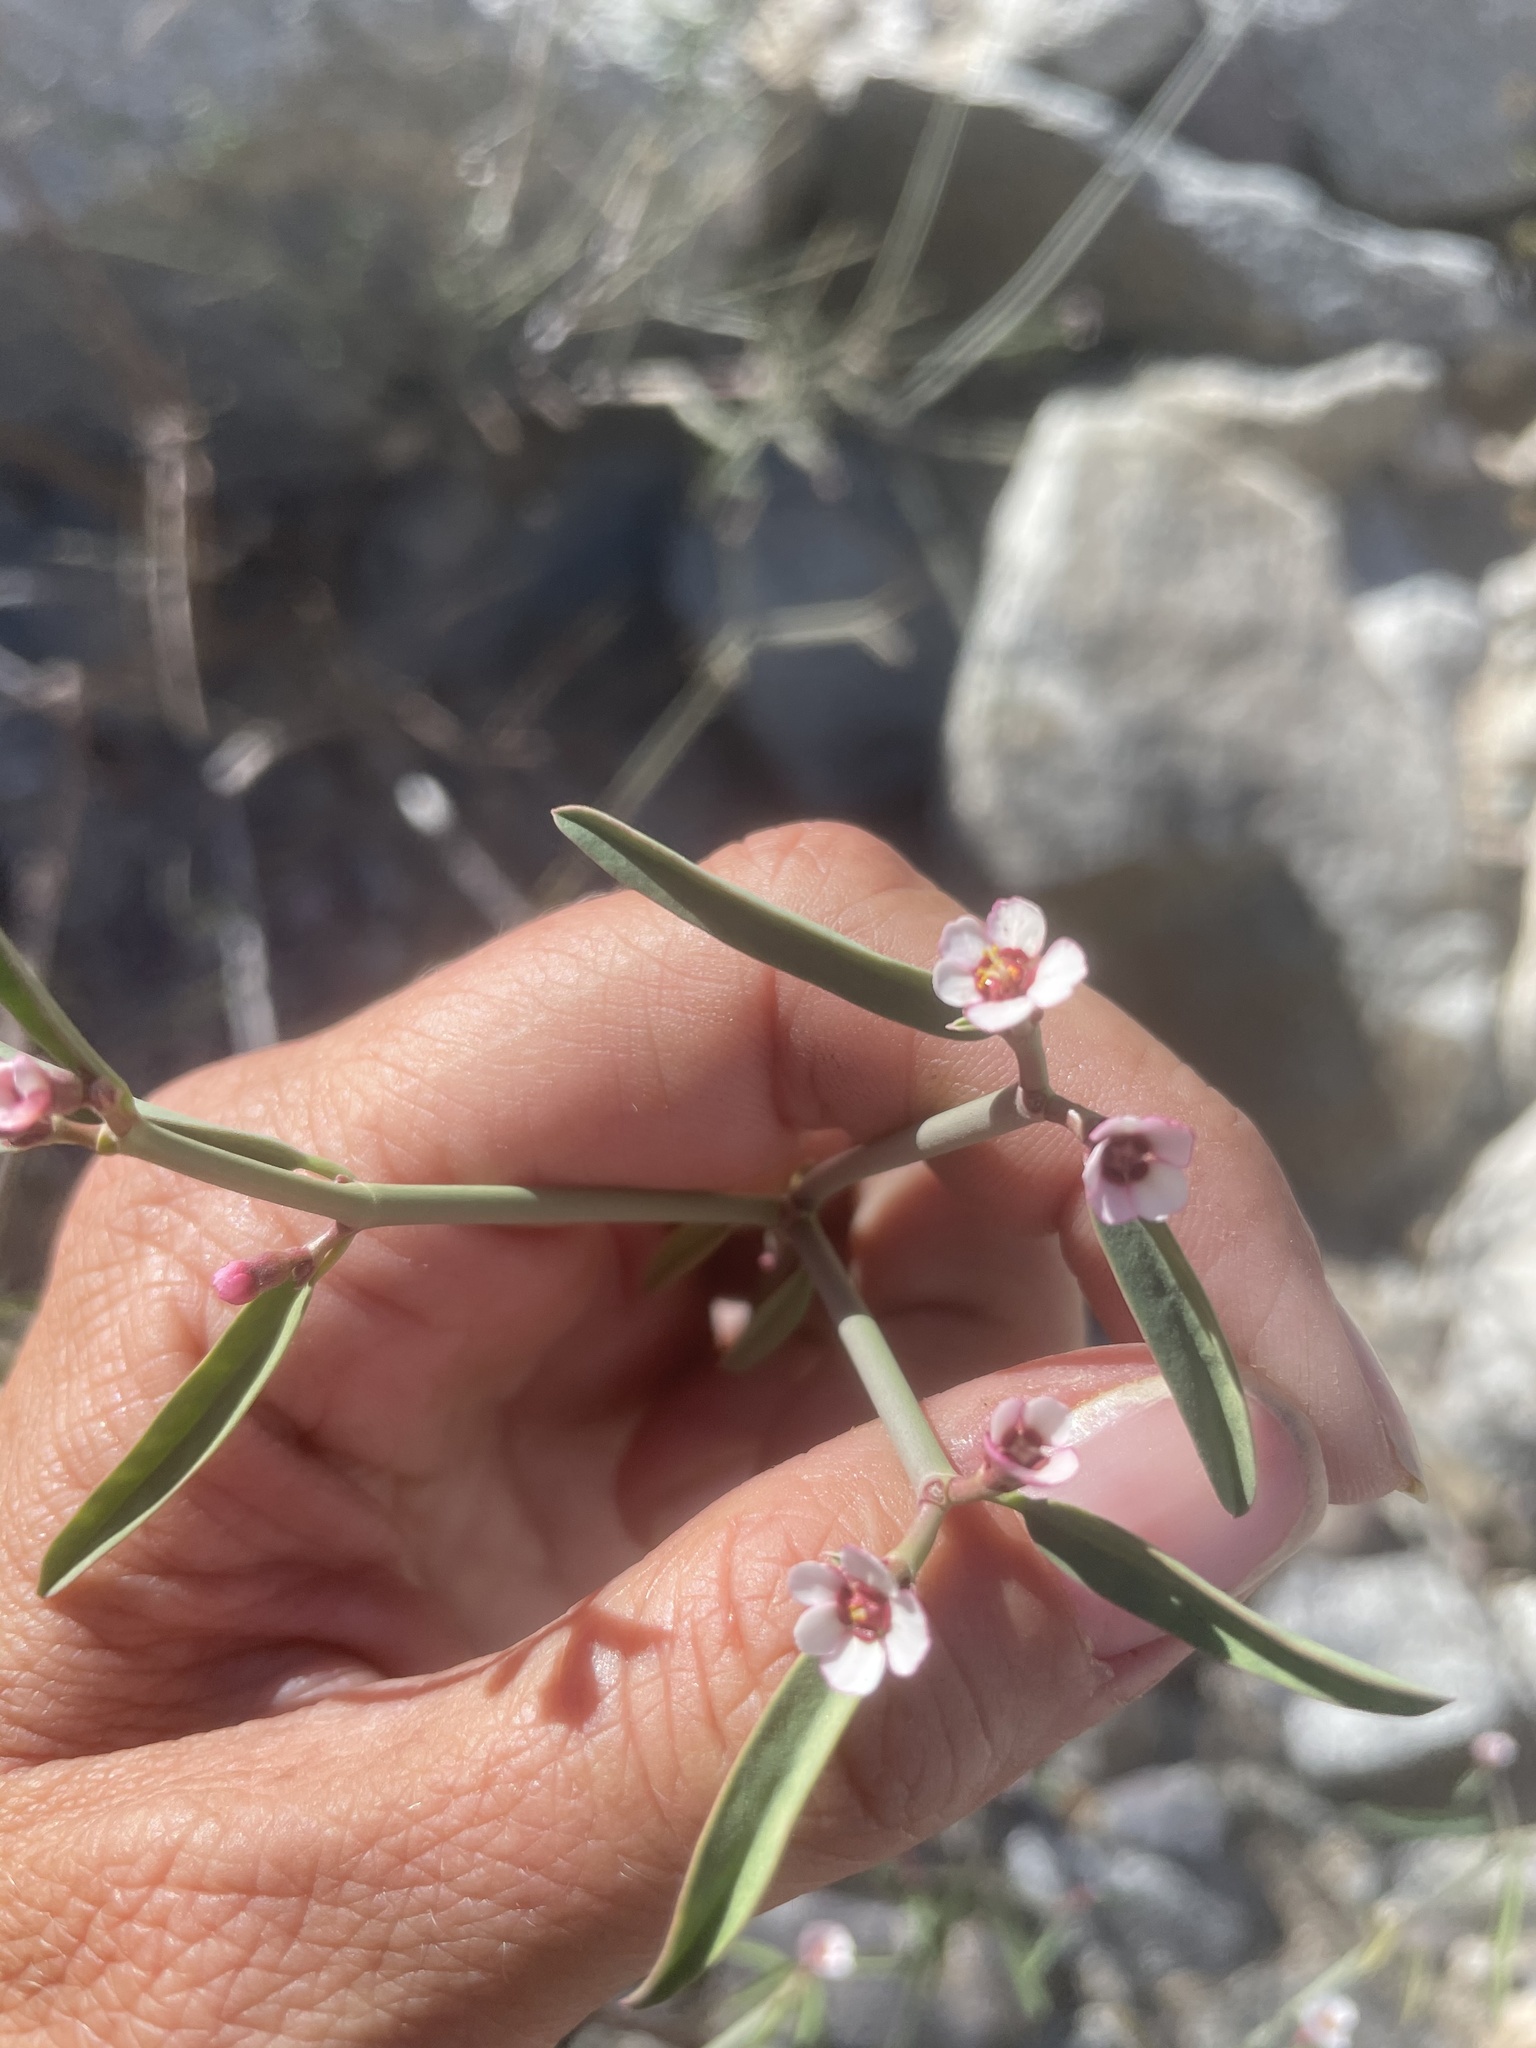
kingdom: Plantae
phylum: Tracheophyta
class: Magnoliopsida
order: Malpighiales
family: Euphorbiaceae
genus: Euphorbia
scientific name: Euphorbia xanti
